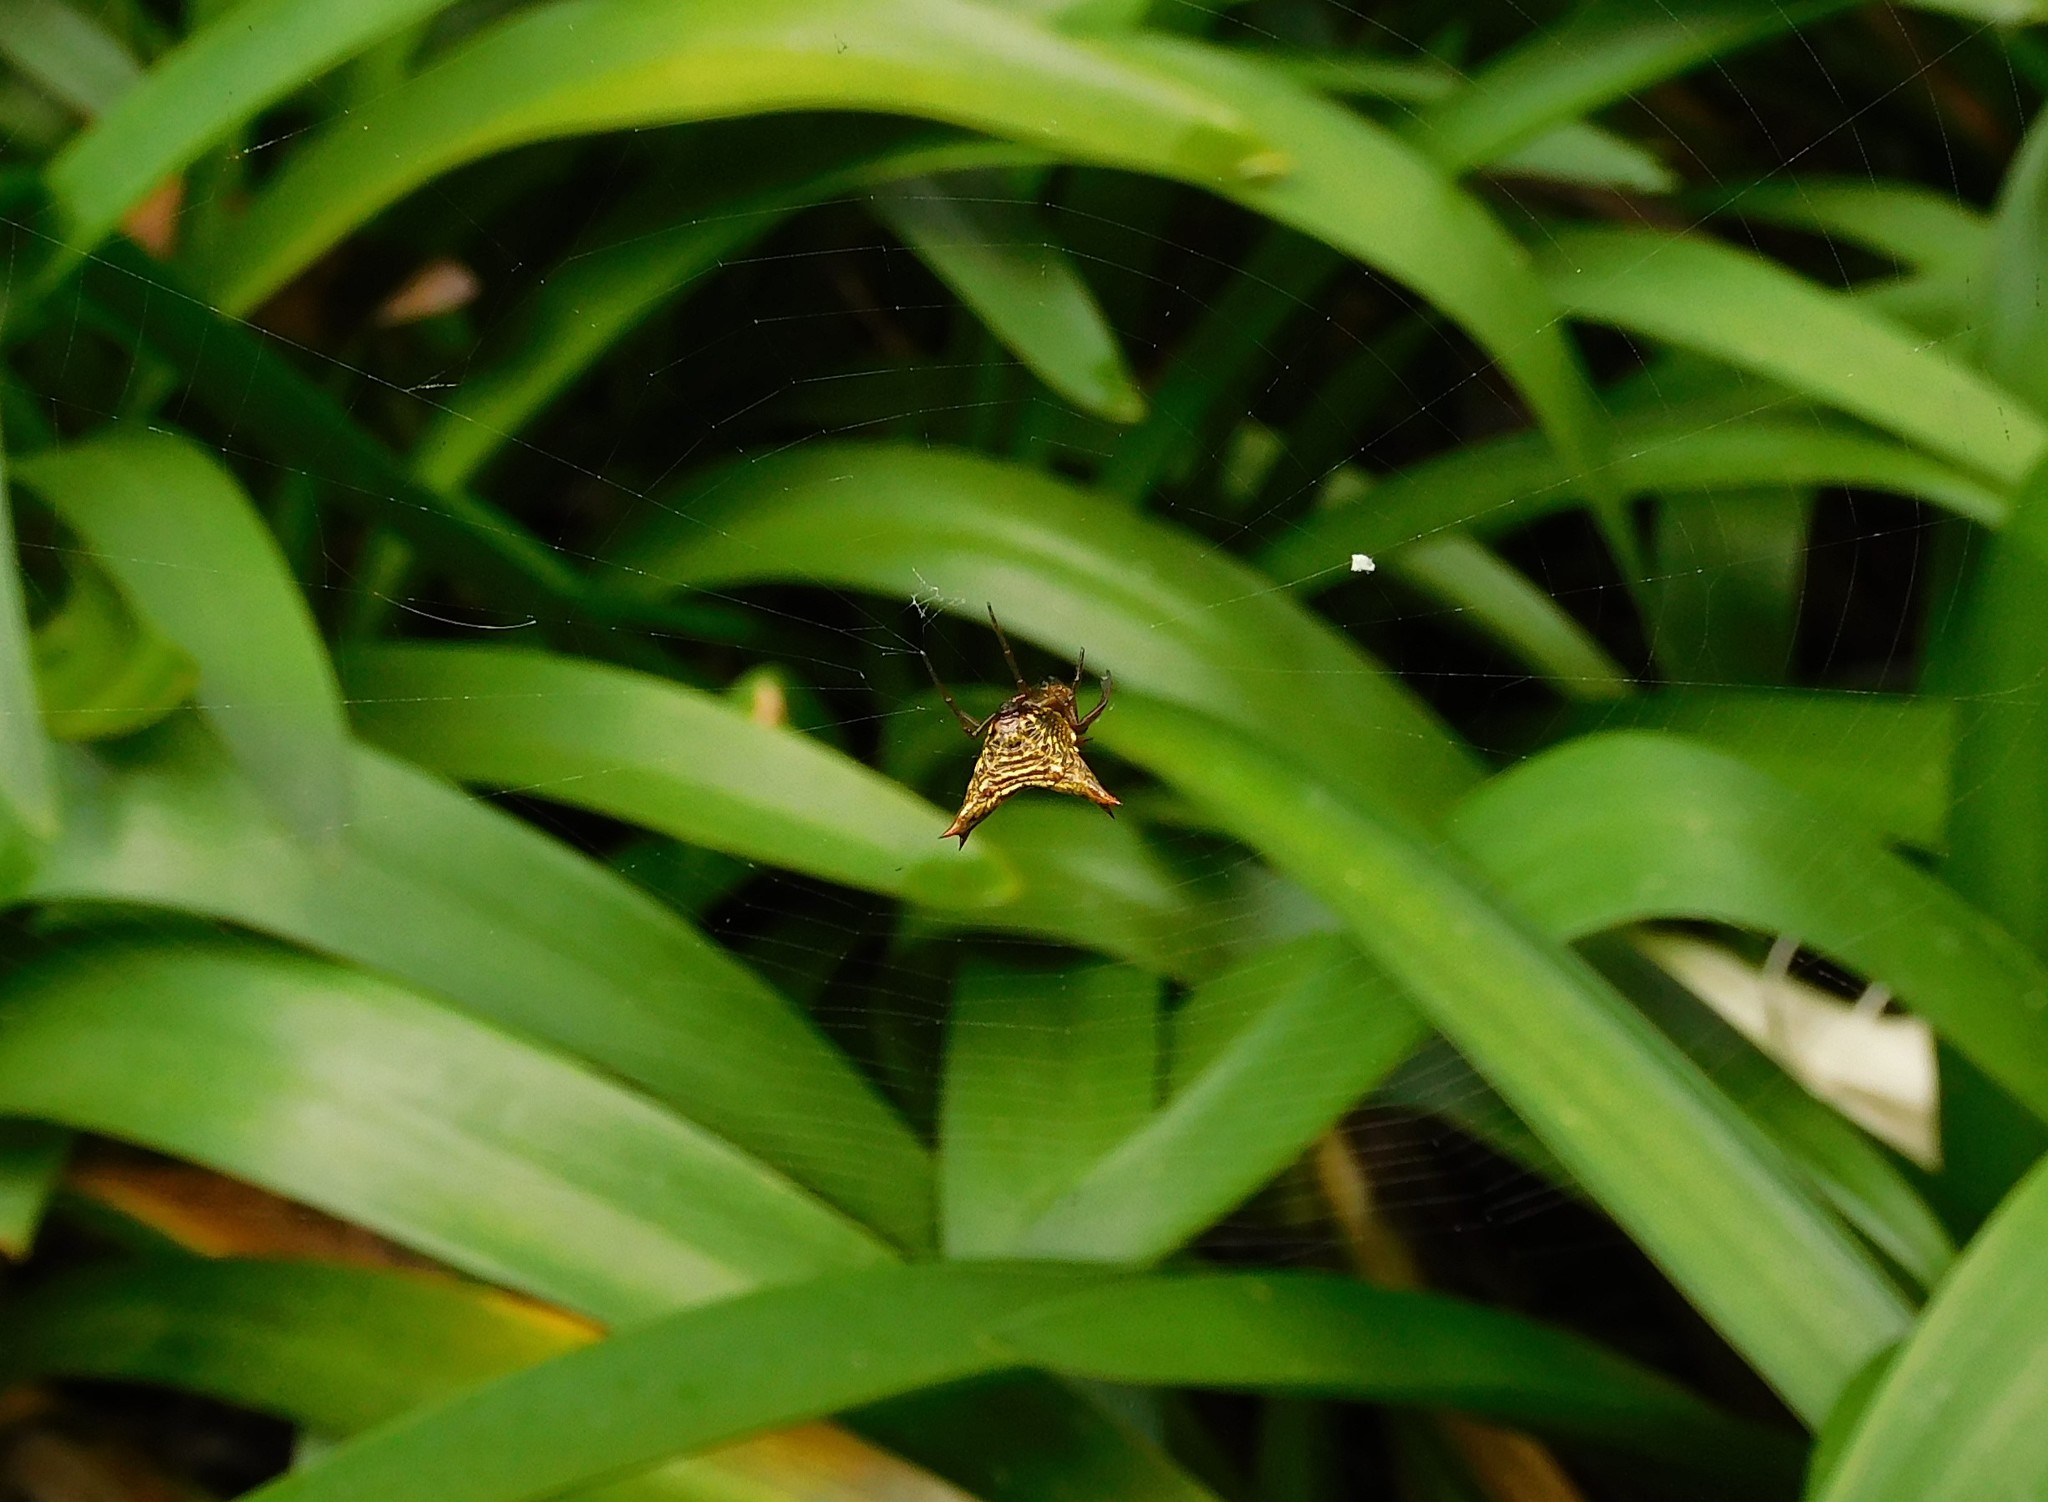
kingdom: Animalia
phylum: Arthropoda
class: Arachnida
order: Araneae
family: Araneidae
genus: Micrathena
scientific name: Micrathena lucasi
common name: Orb weavers
